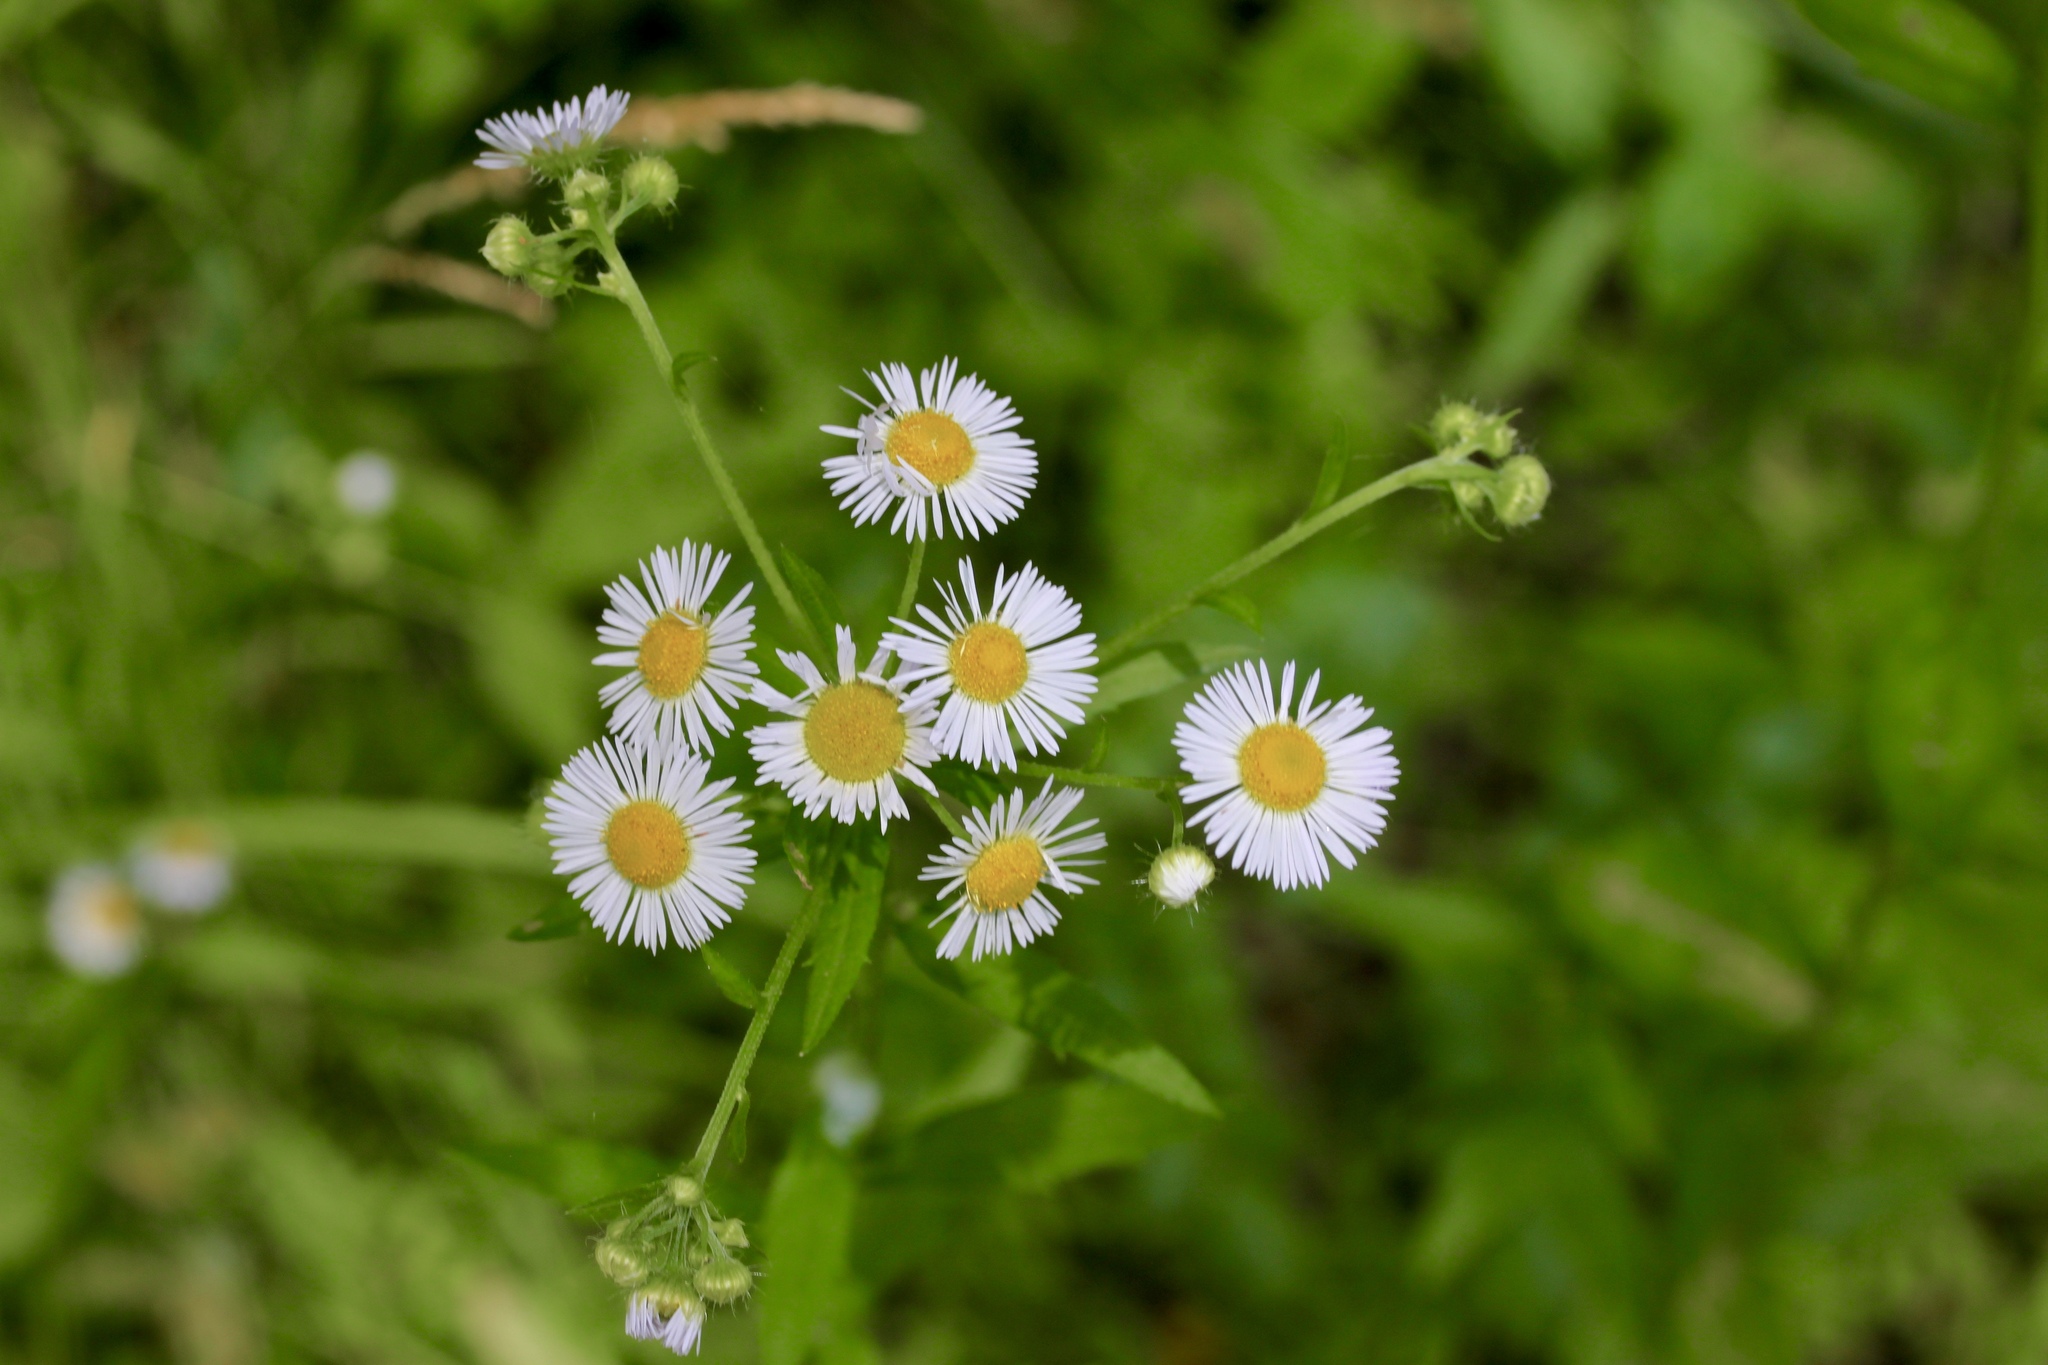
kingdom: Plantae
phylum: Tracheophyta
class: Magnoliopsida
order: Asterales
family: Asteraceae
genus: Erigeron
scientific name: Erigeron strigosus
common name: Common eastern fleabane
